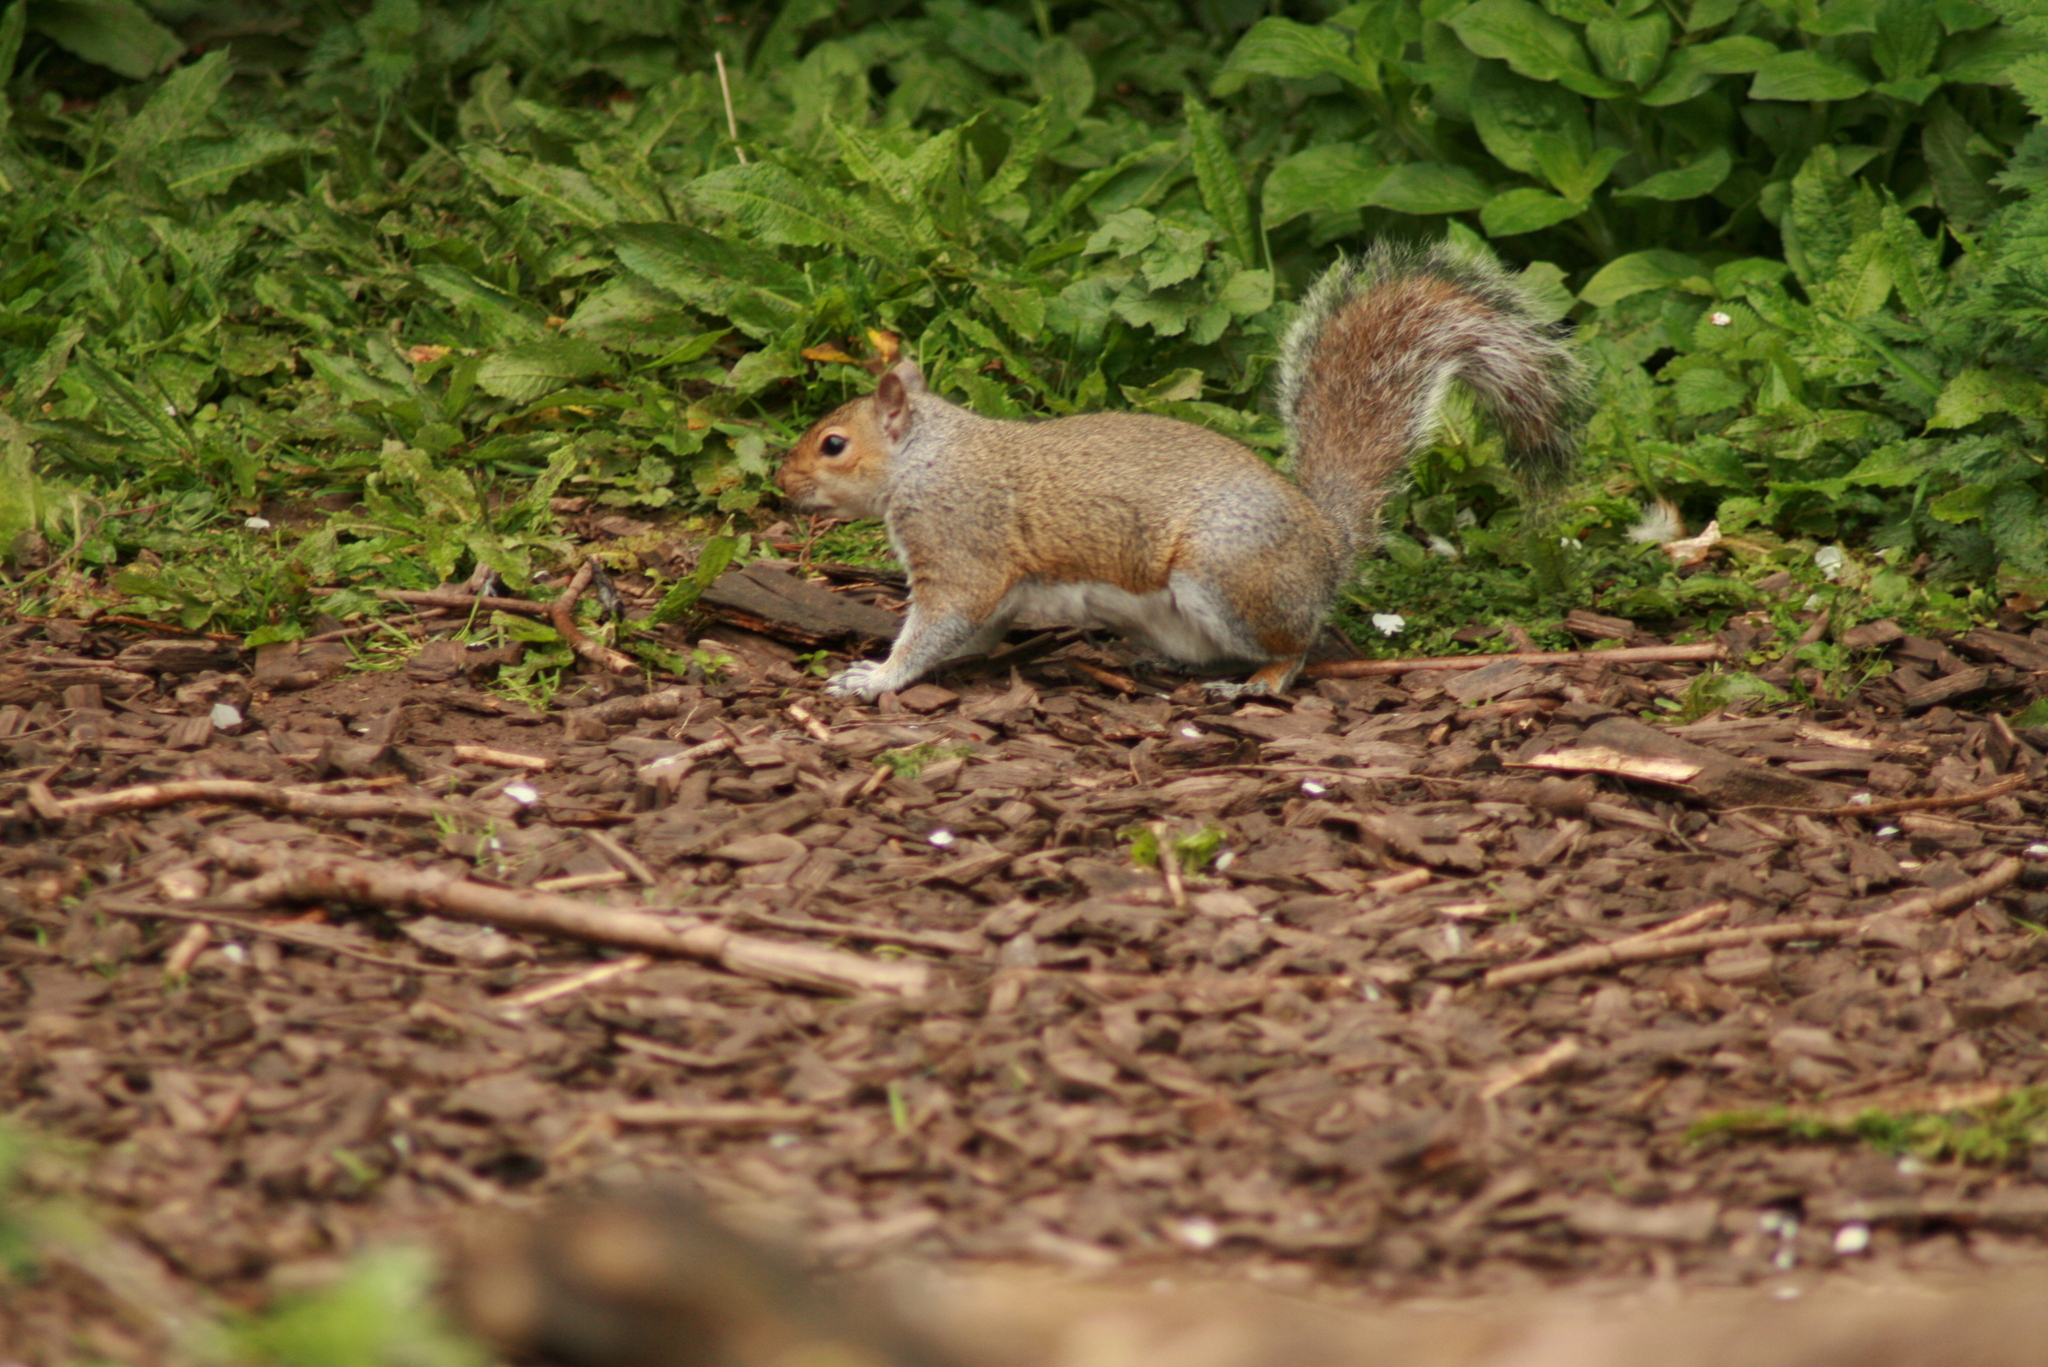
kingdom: Animalia
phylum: Chordata
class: Mammalia
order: Rodentia
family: Sciuridae
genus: Sciurus
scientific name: Sciurus carolinensis
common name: Eastern gray squirrel
